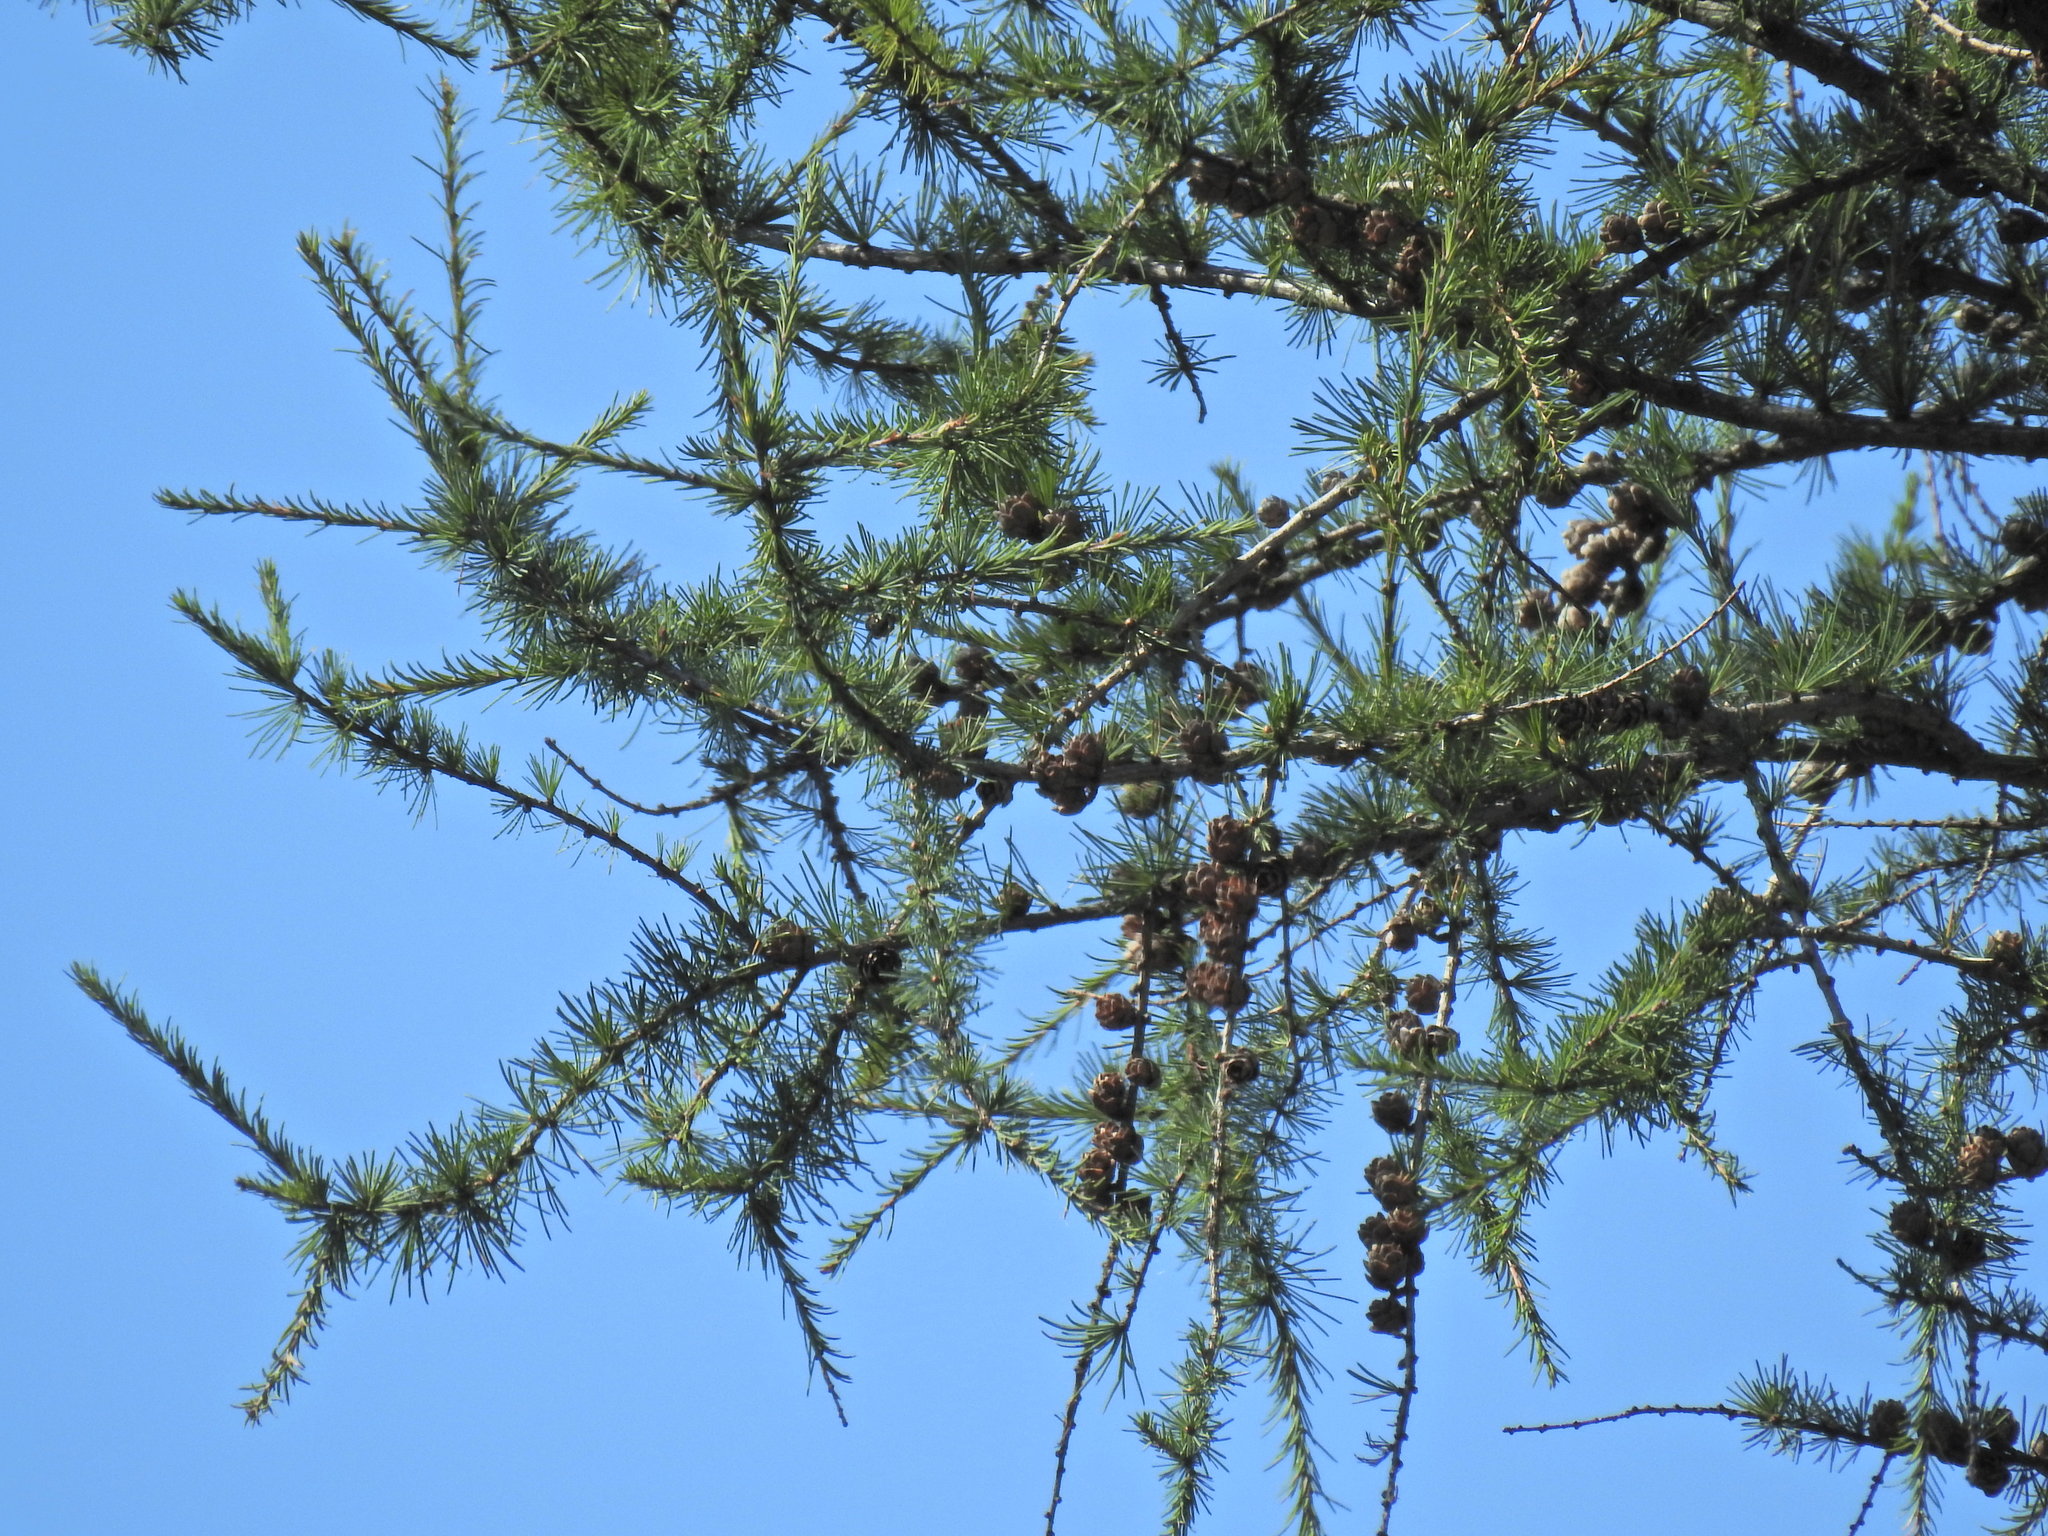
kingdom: Plantae
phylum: Tracheophyta
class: Pinopsida
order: Pinales
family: Pinaceae
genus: Larix
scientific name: Larix laricina
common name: American larch
